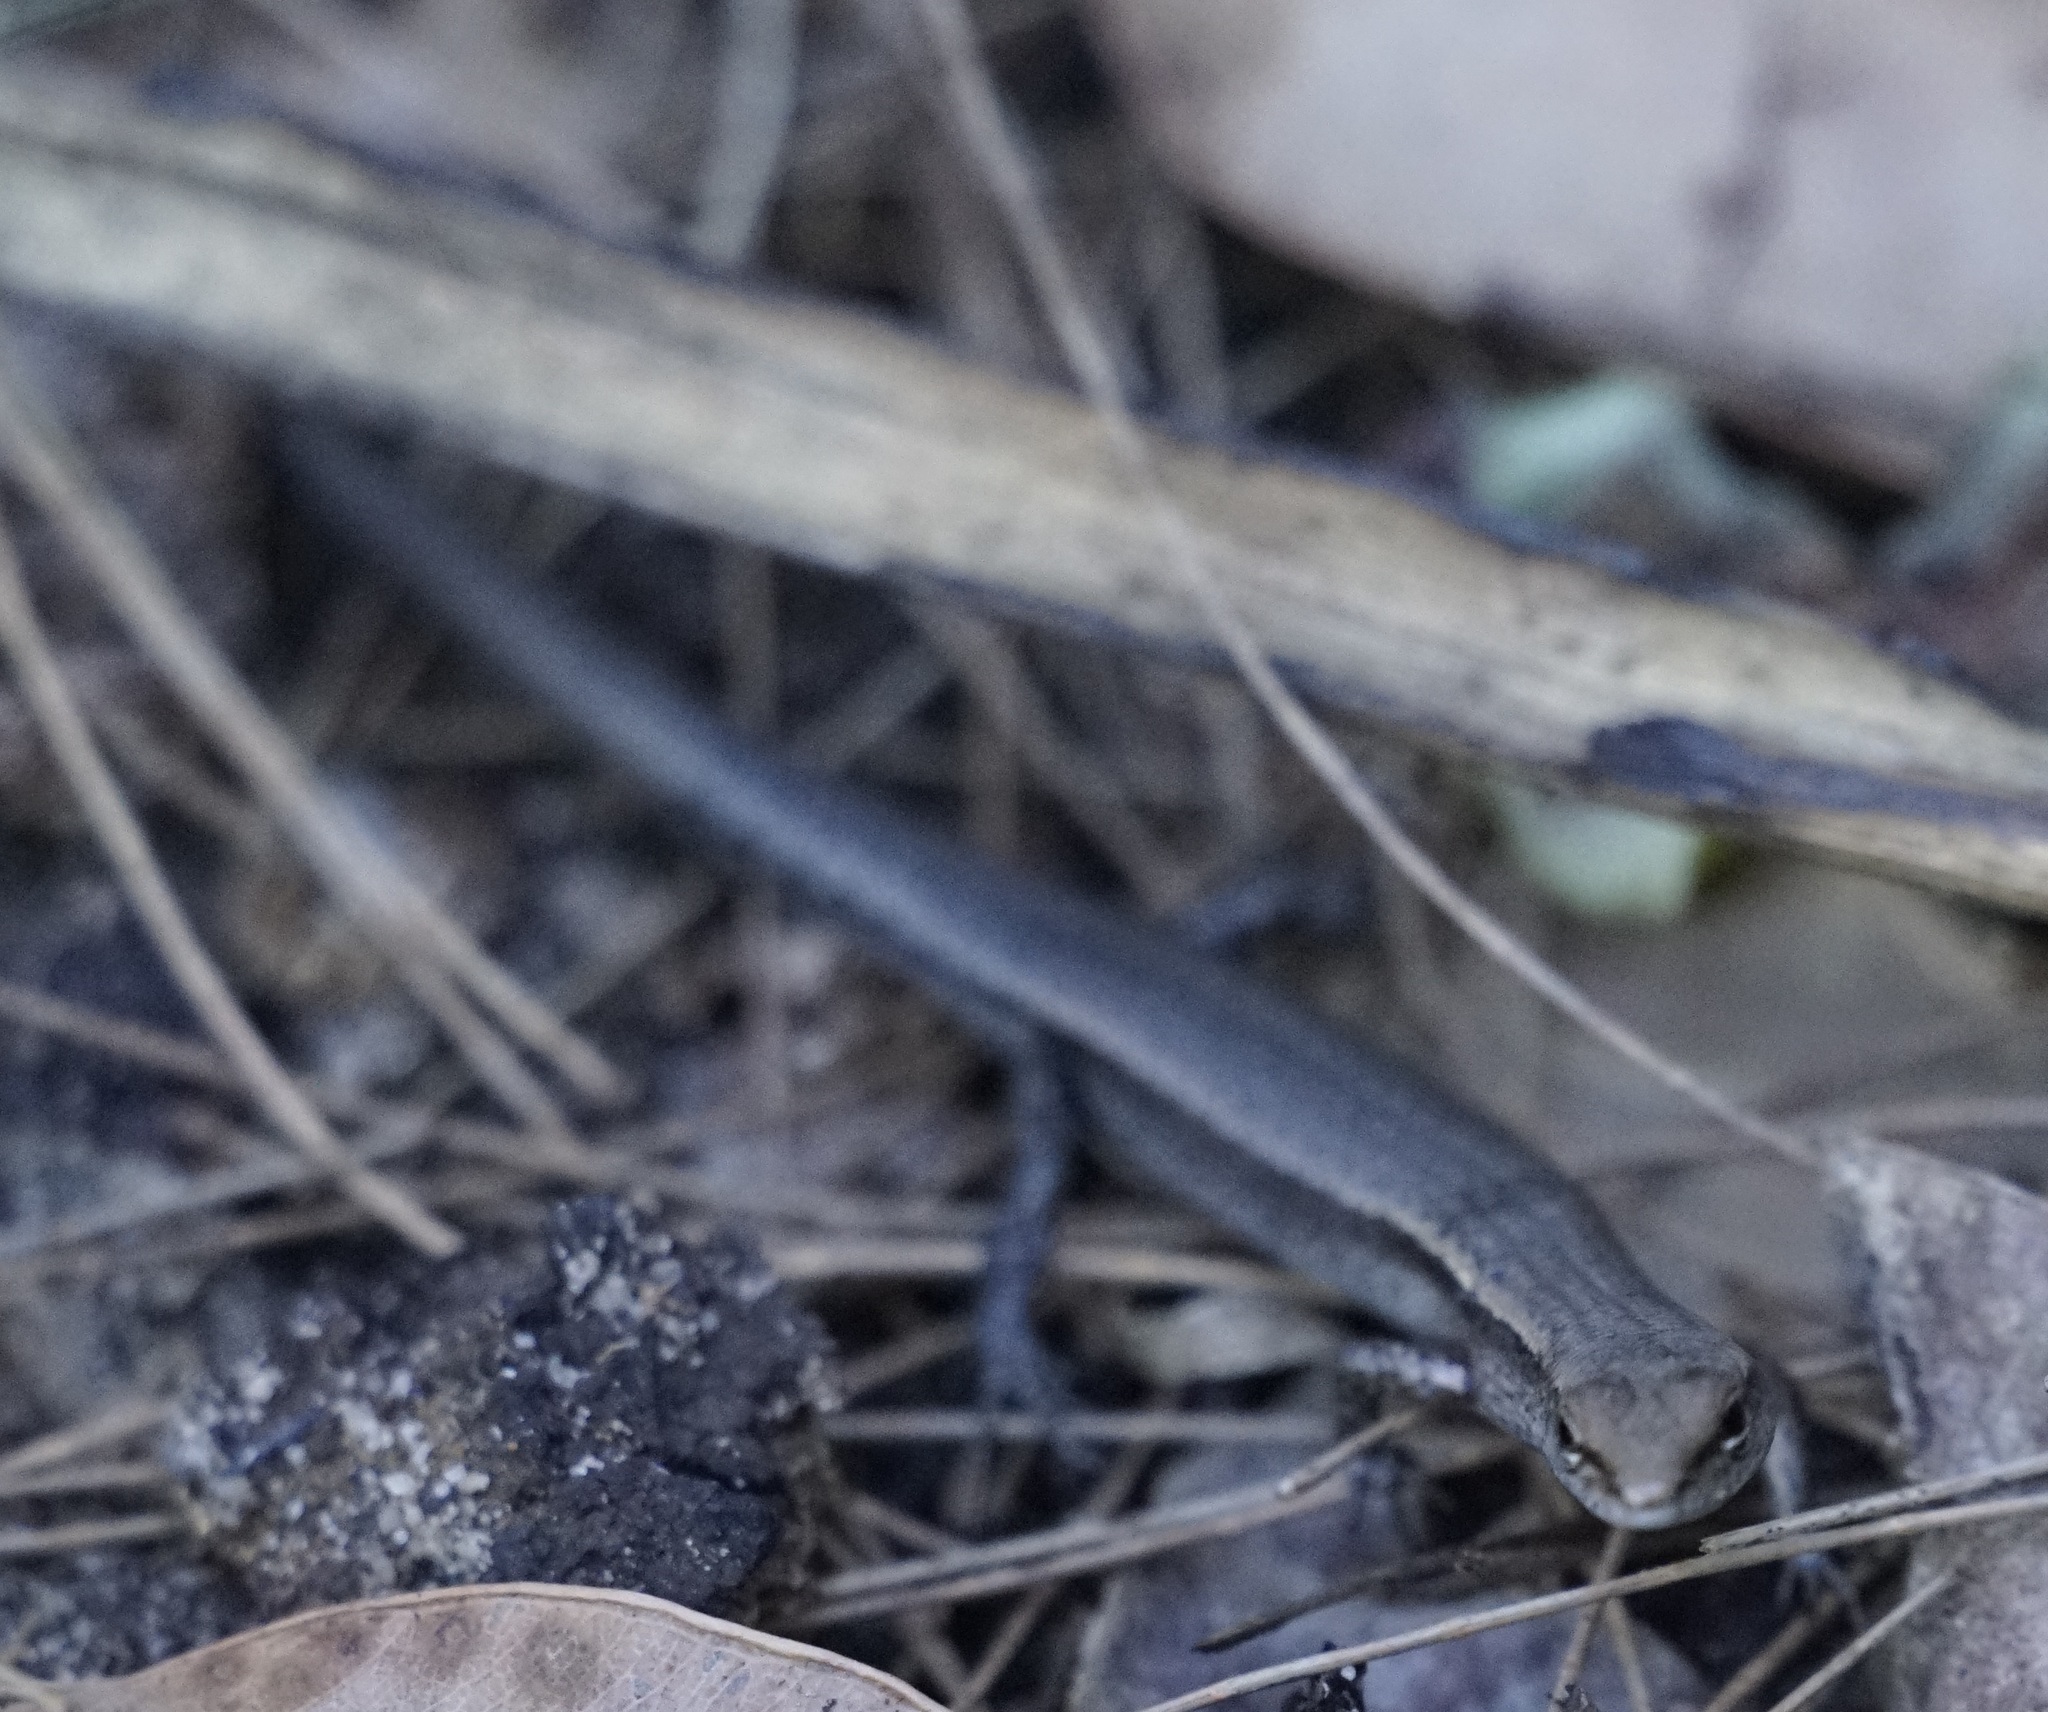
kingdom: Animalia
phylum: Chordata
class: Squamata
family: Scincidae
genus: Lampropholis
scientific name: Lampropholis guichenoti
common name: Garden skink
